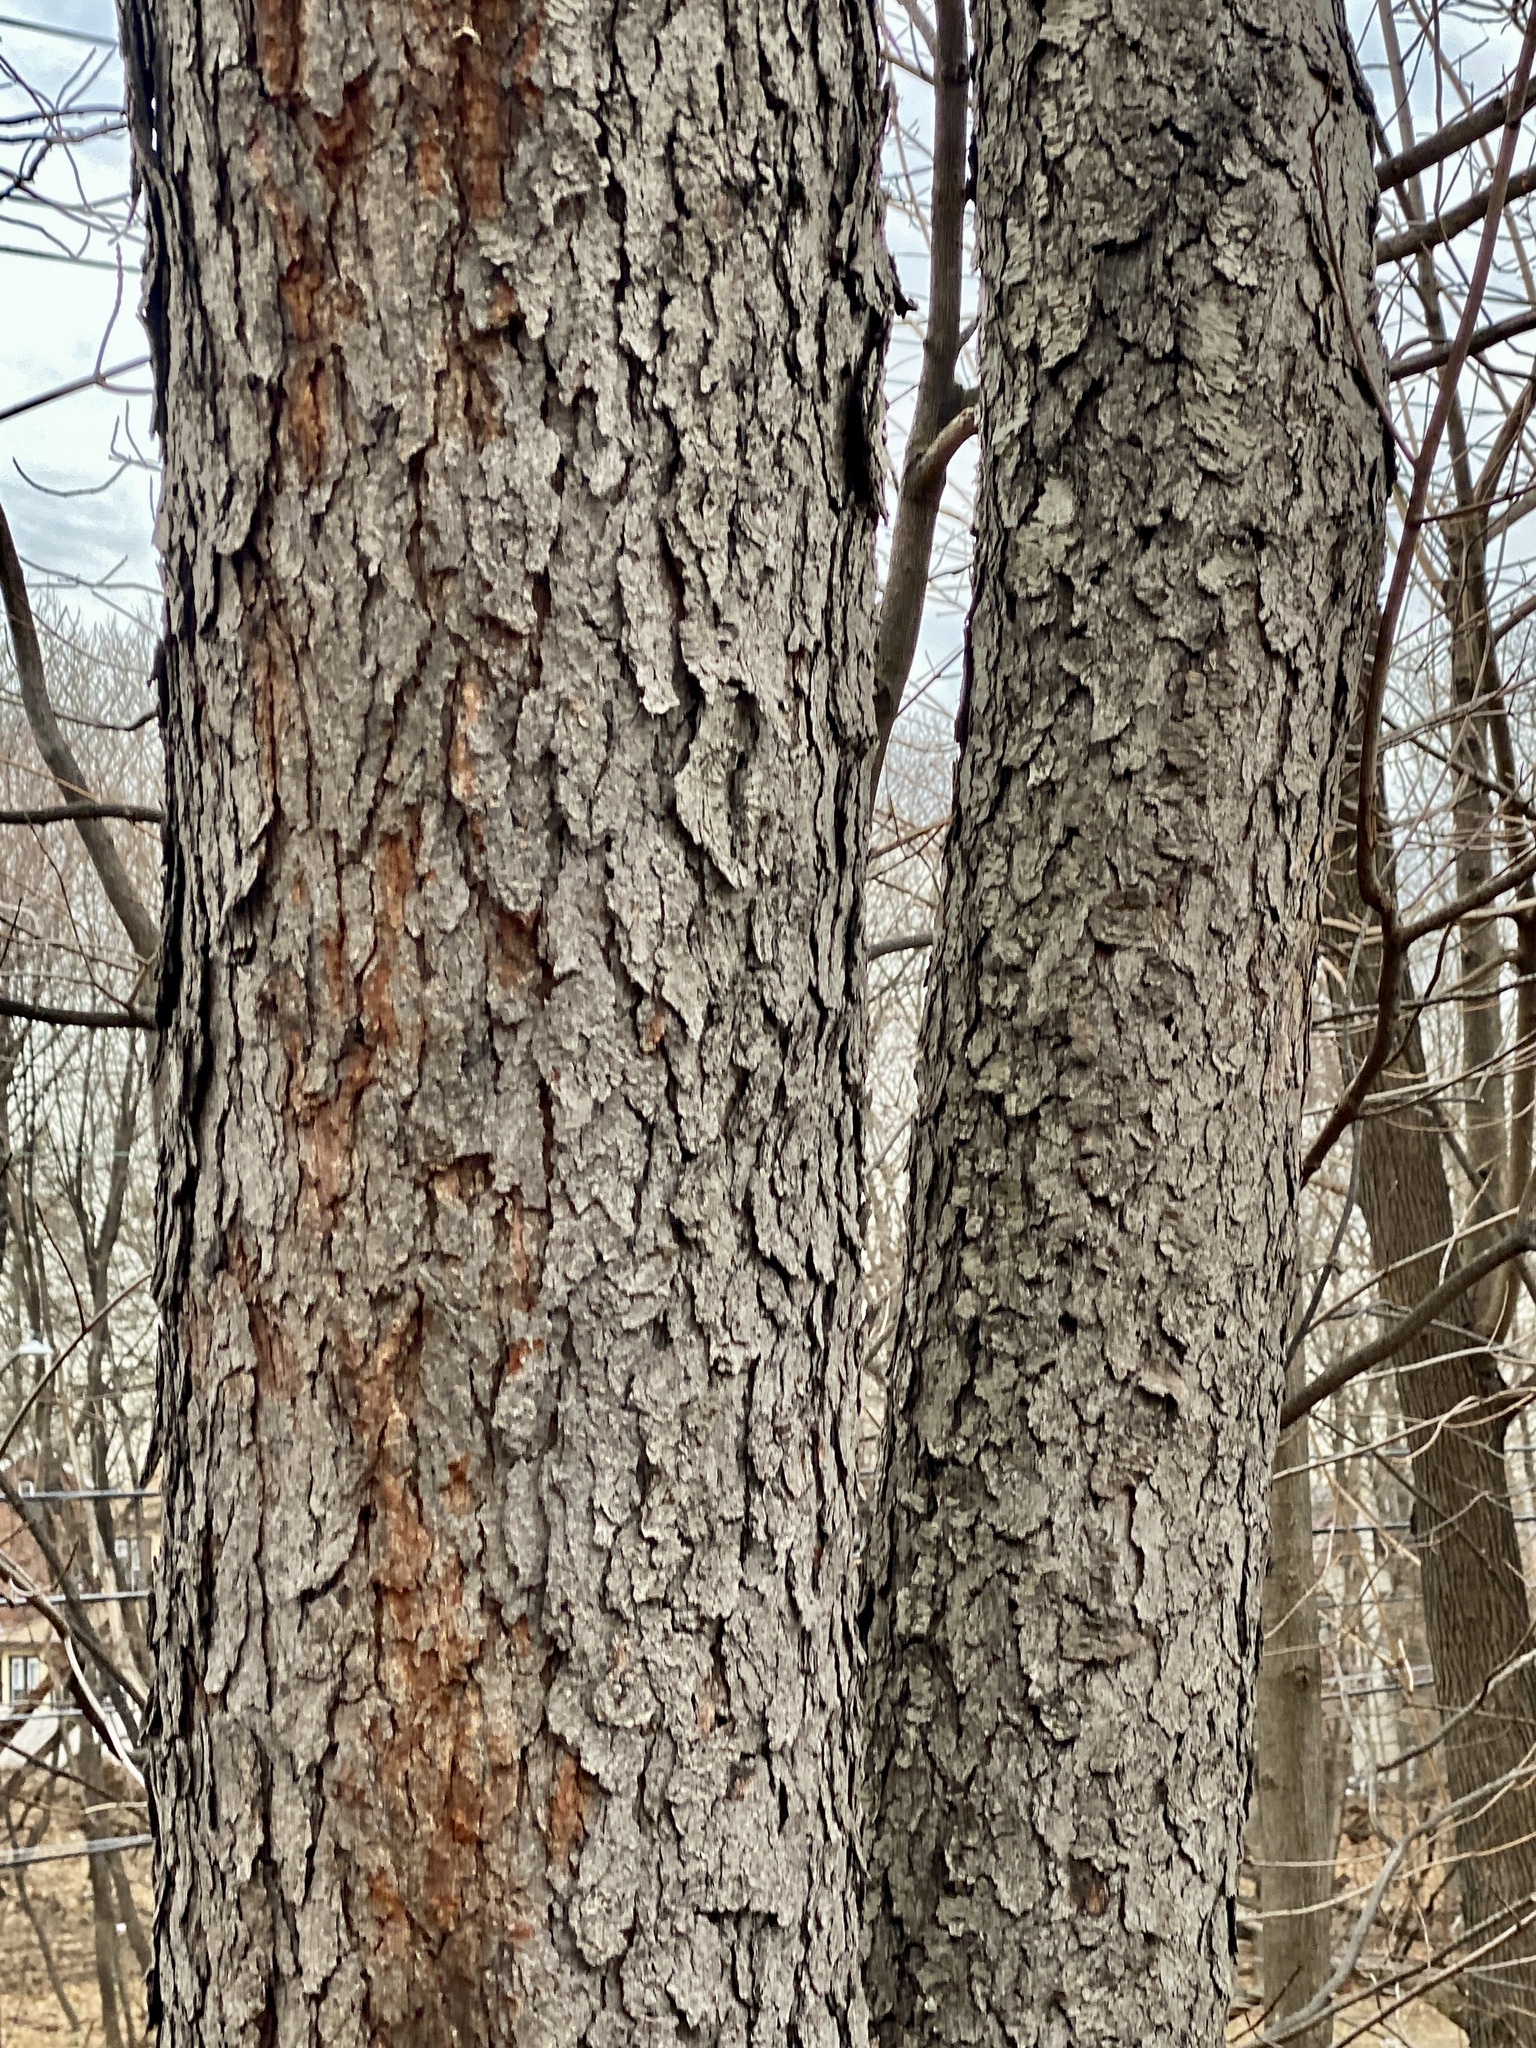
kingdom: Plantae
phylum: Tracheophyta
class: Magnoliopsida
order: Rosales
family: Rosaceae
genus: Prunus
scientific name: Prunus serotina
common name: Black cherry
